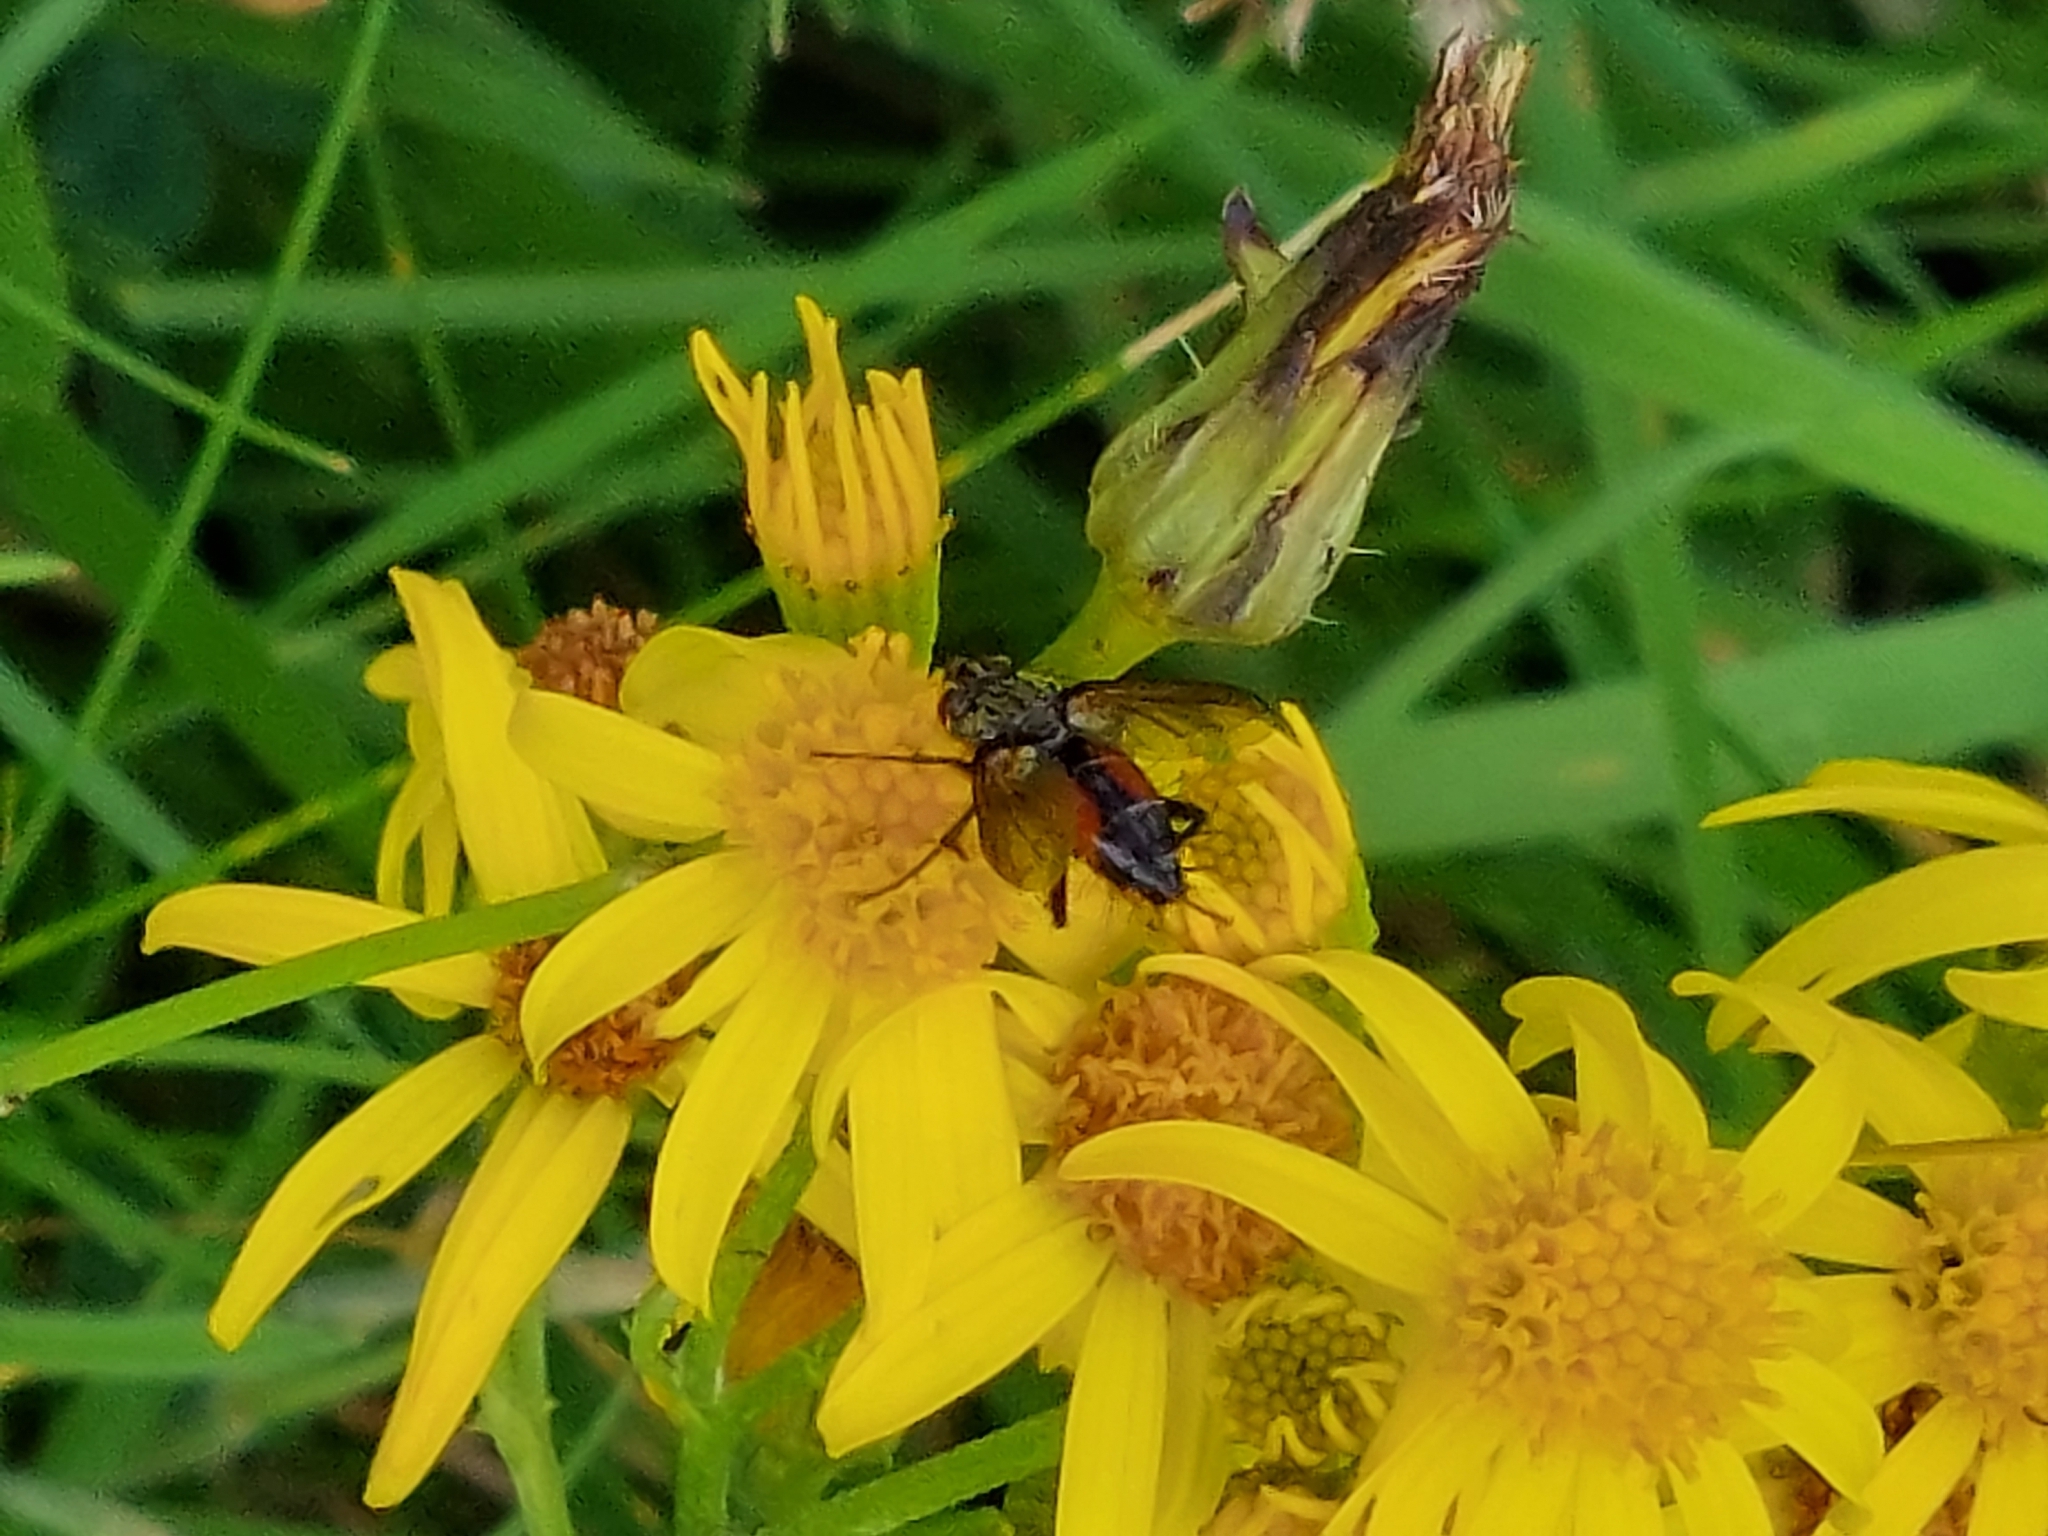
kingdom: Animalia
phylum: Arthropoda
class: Insecta
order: Diptera
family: Tachinidae
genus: Eriothrix
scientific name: Eriothrix rufomaculatus
